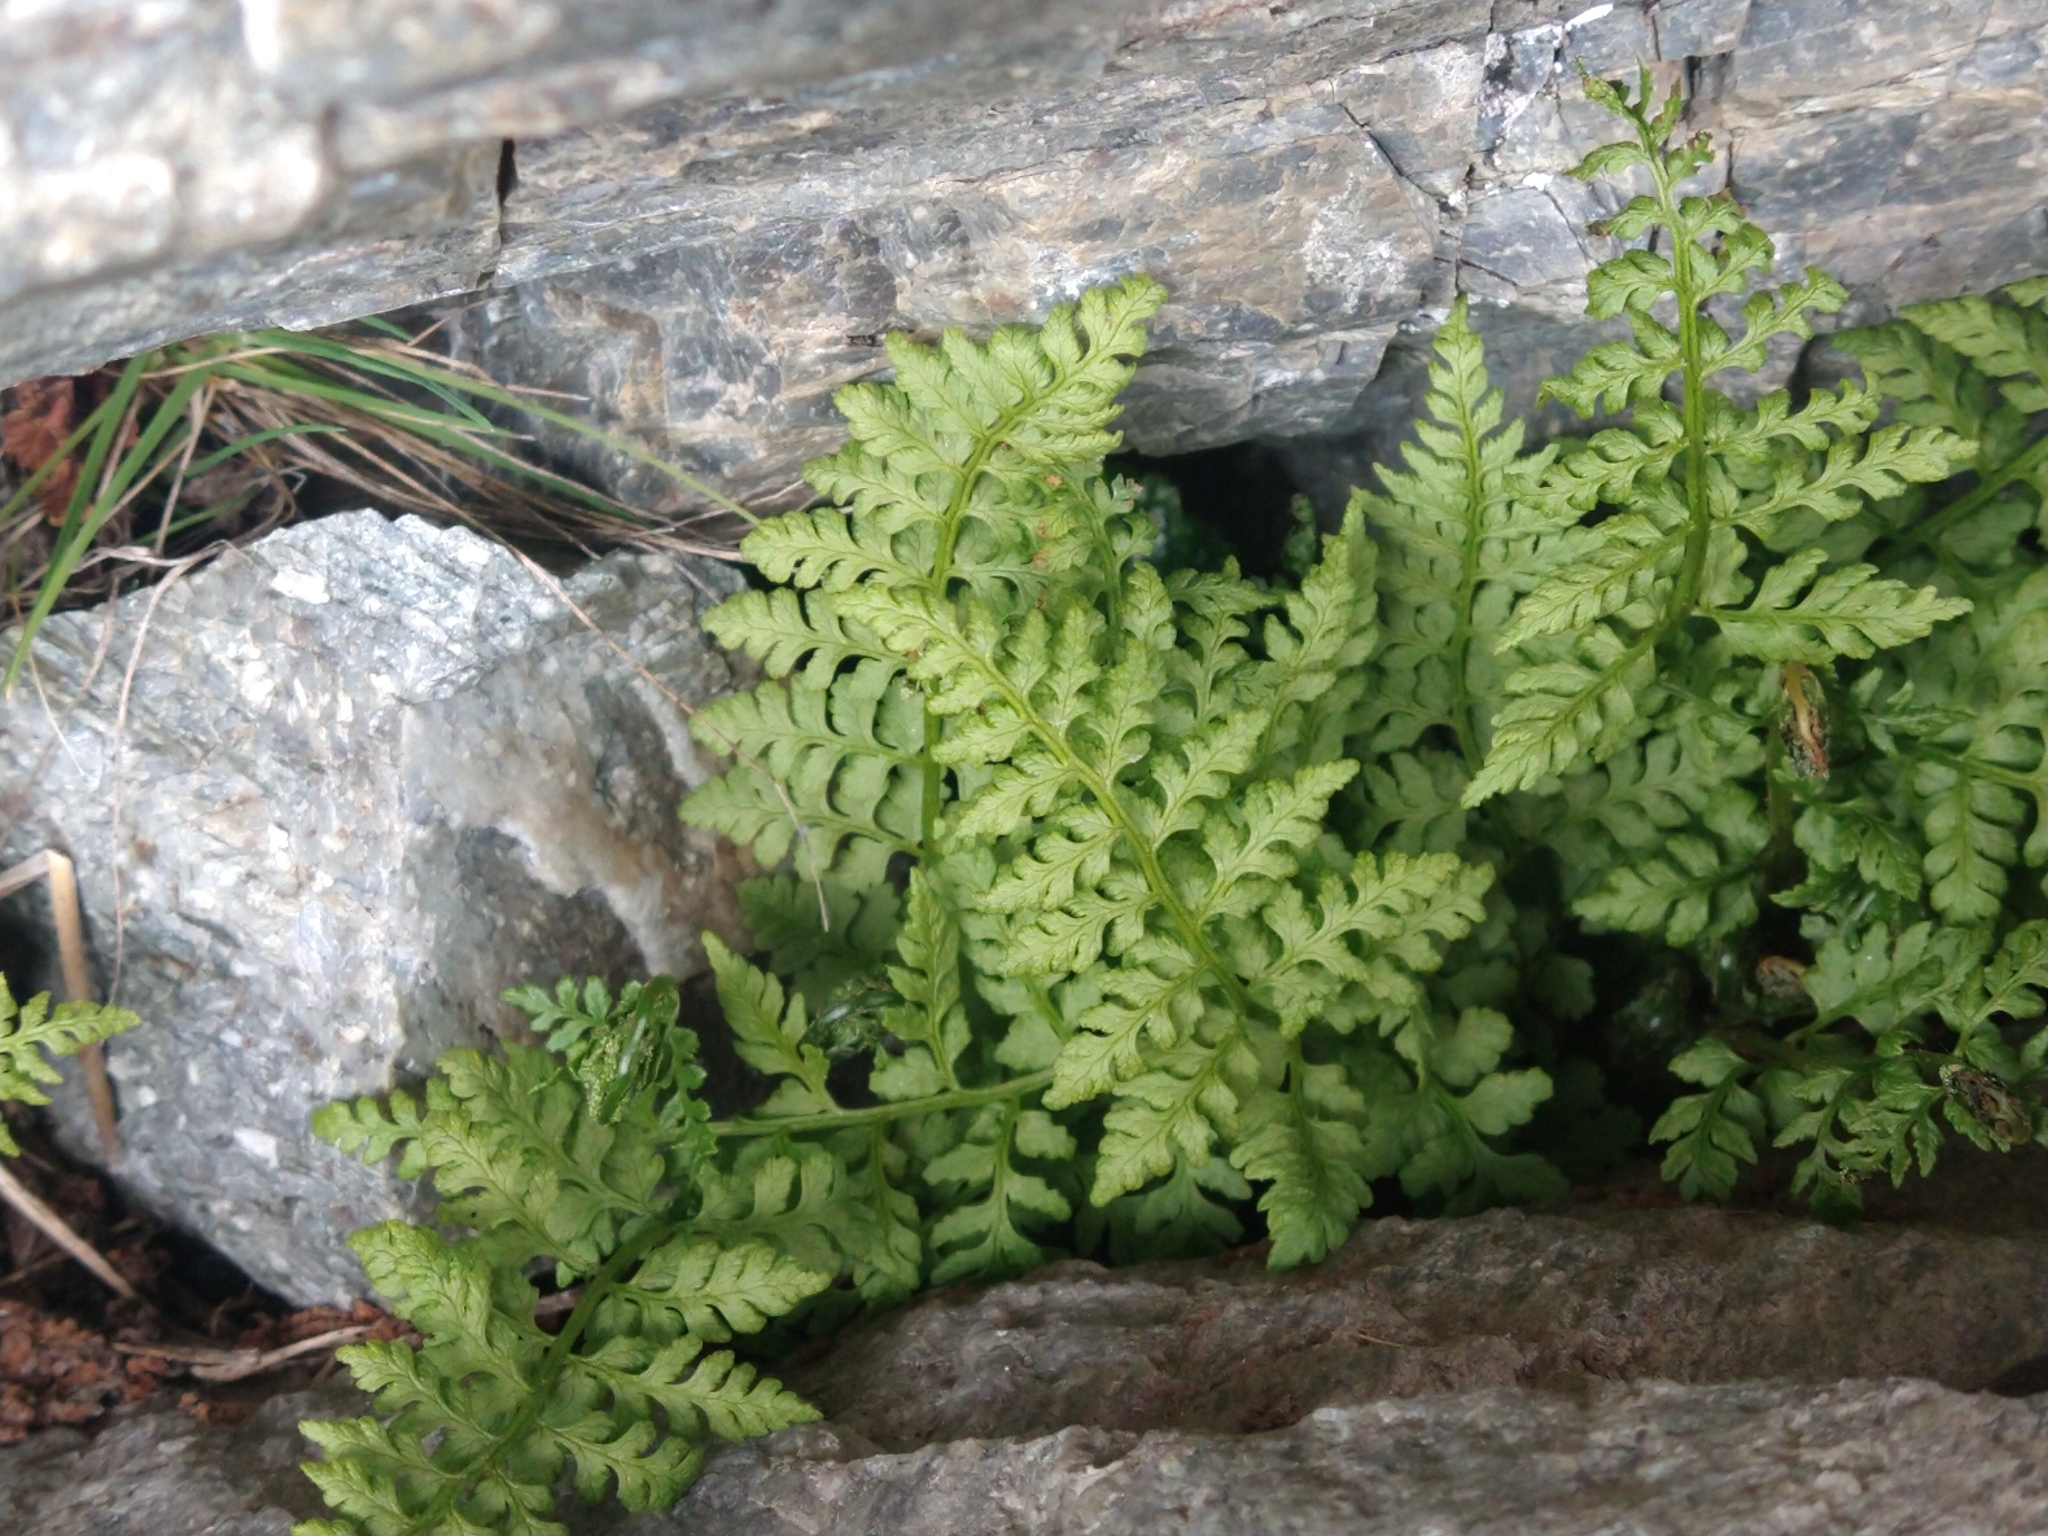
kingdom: Plantae
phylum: Tracheophyta
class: Polypodiopsida
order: Polypodiales
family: Cystopteridaceae
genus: Cystopteris
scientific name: Cystopteris fragilis
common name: Brittle bladder fern
